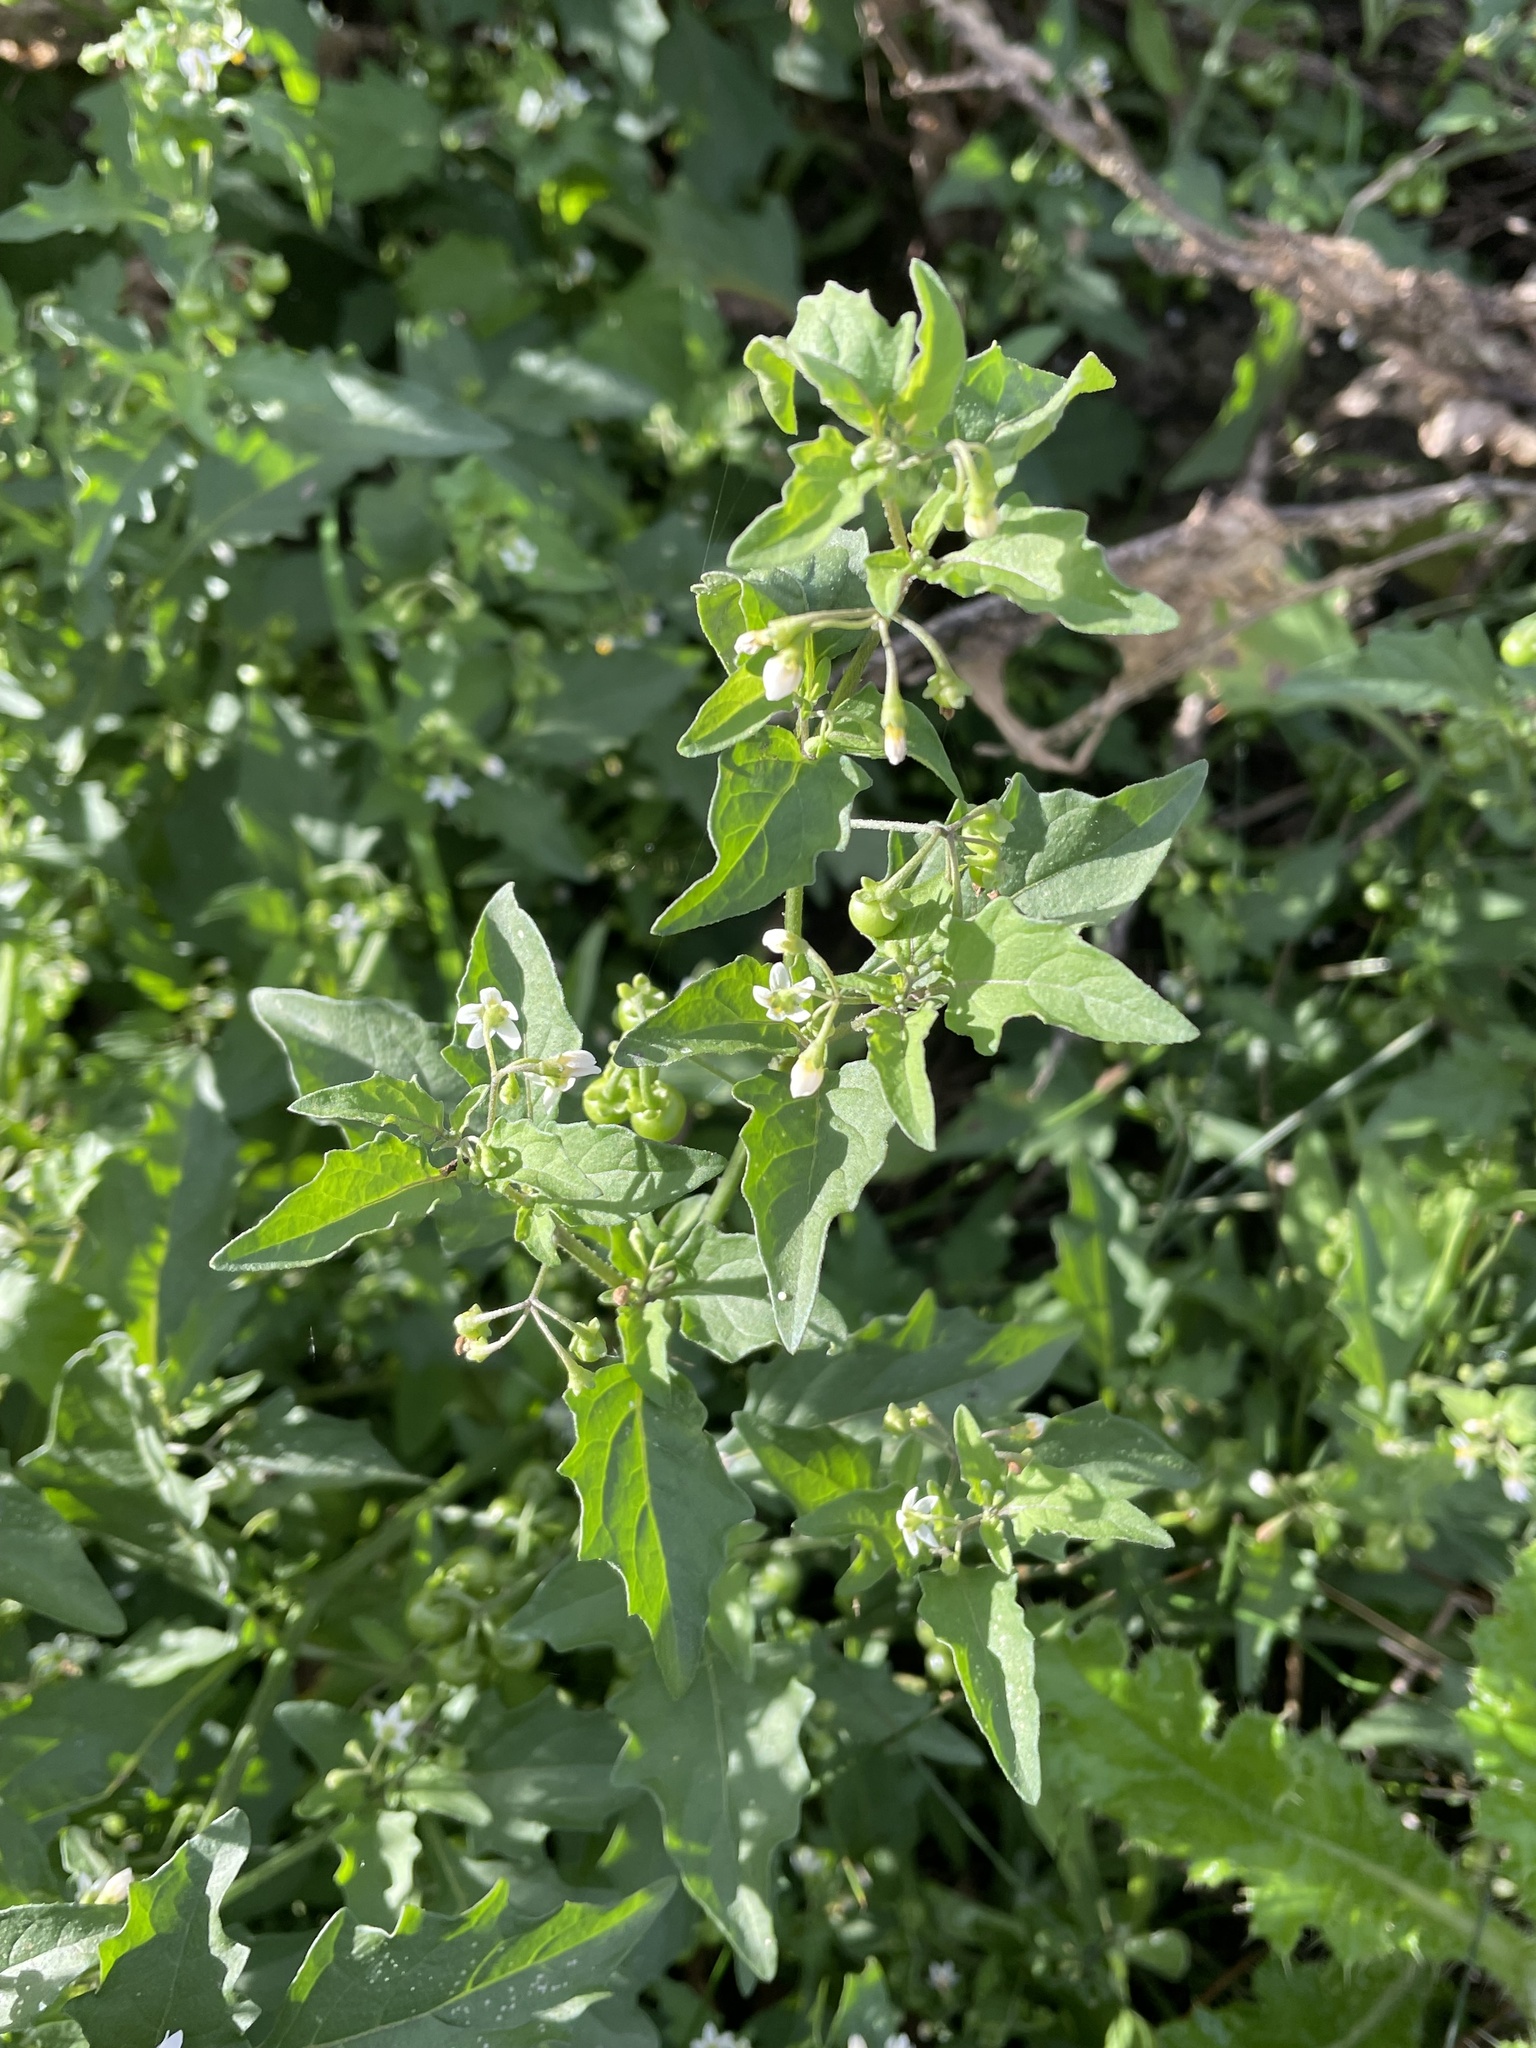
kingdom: Plantae
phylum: Tracheophyta
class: Magnoliopsida
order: Solanales
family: Solanaceae
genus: Solanum
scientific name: Solanum americanum
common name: American black nightshade
